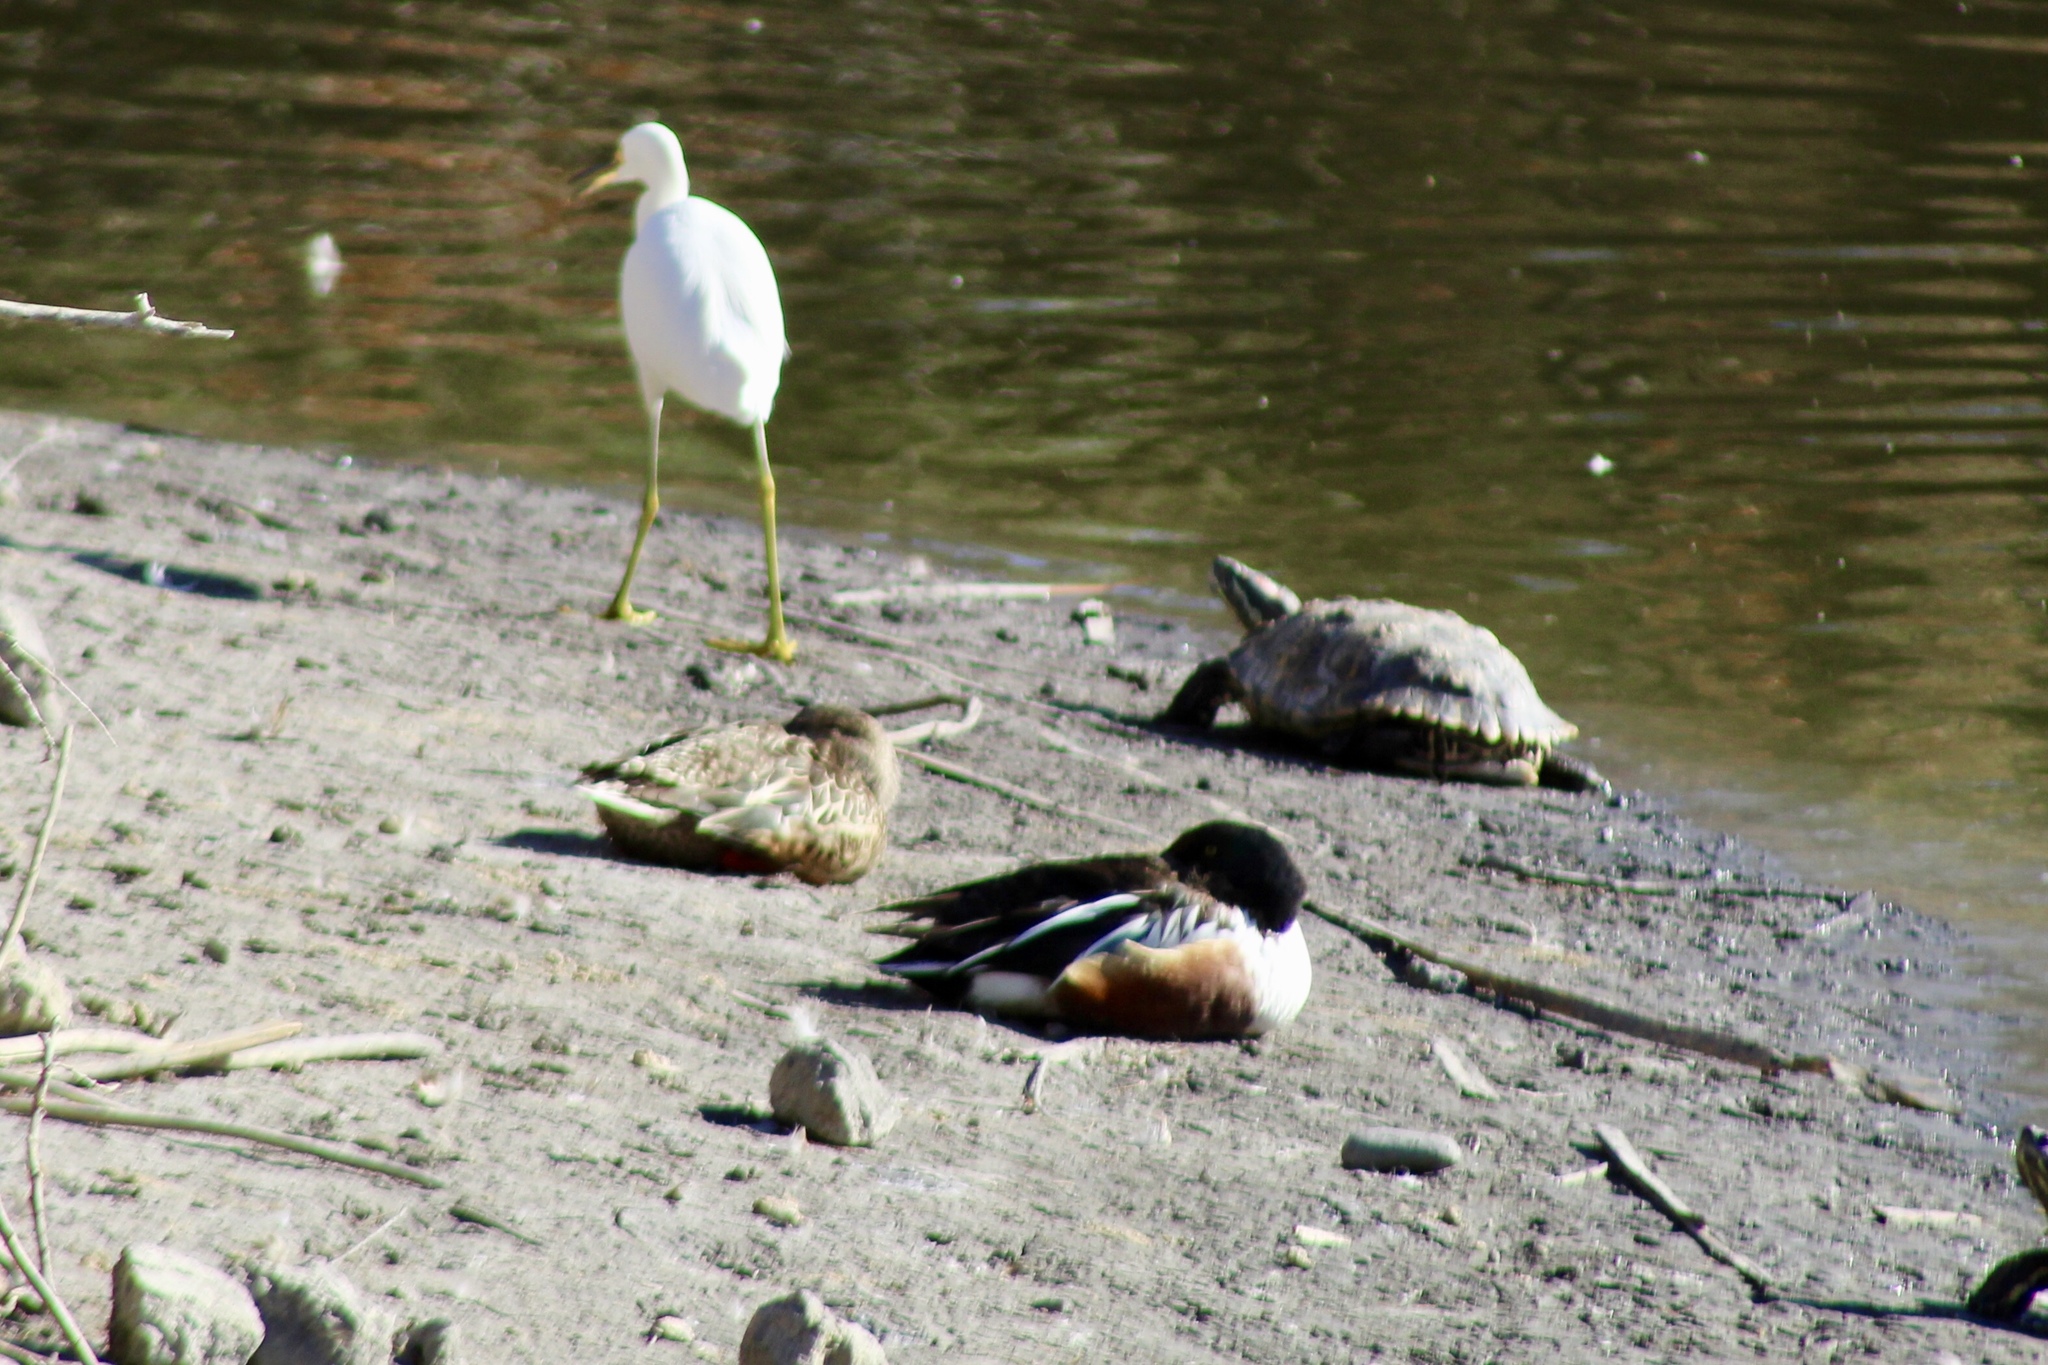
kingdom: Animalia
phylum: Chordata
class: Aves
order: Pelecaniformes
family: Ardeidae
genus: Egretta
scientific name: Egretta thula
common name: Snowy egret
